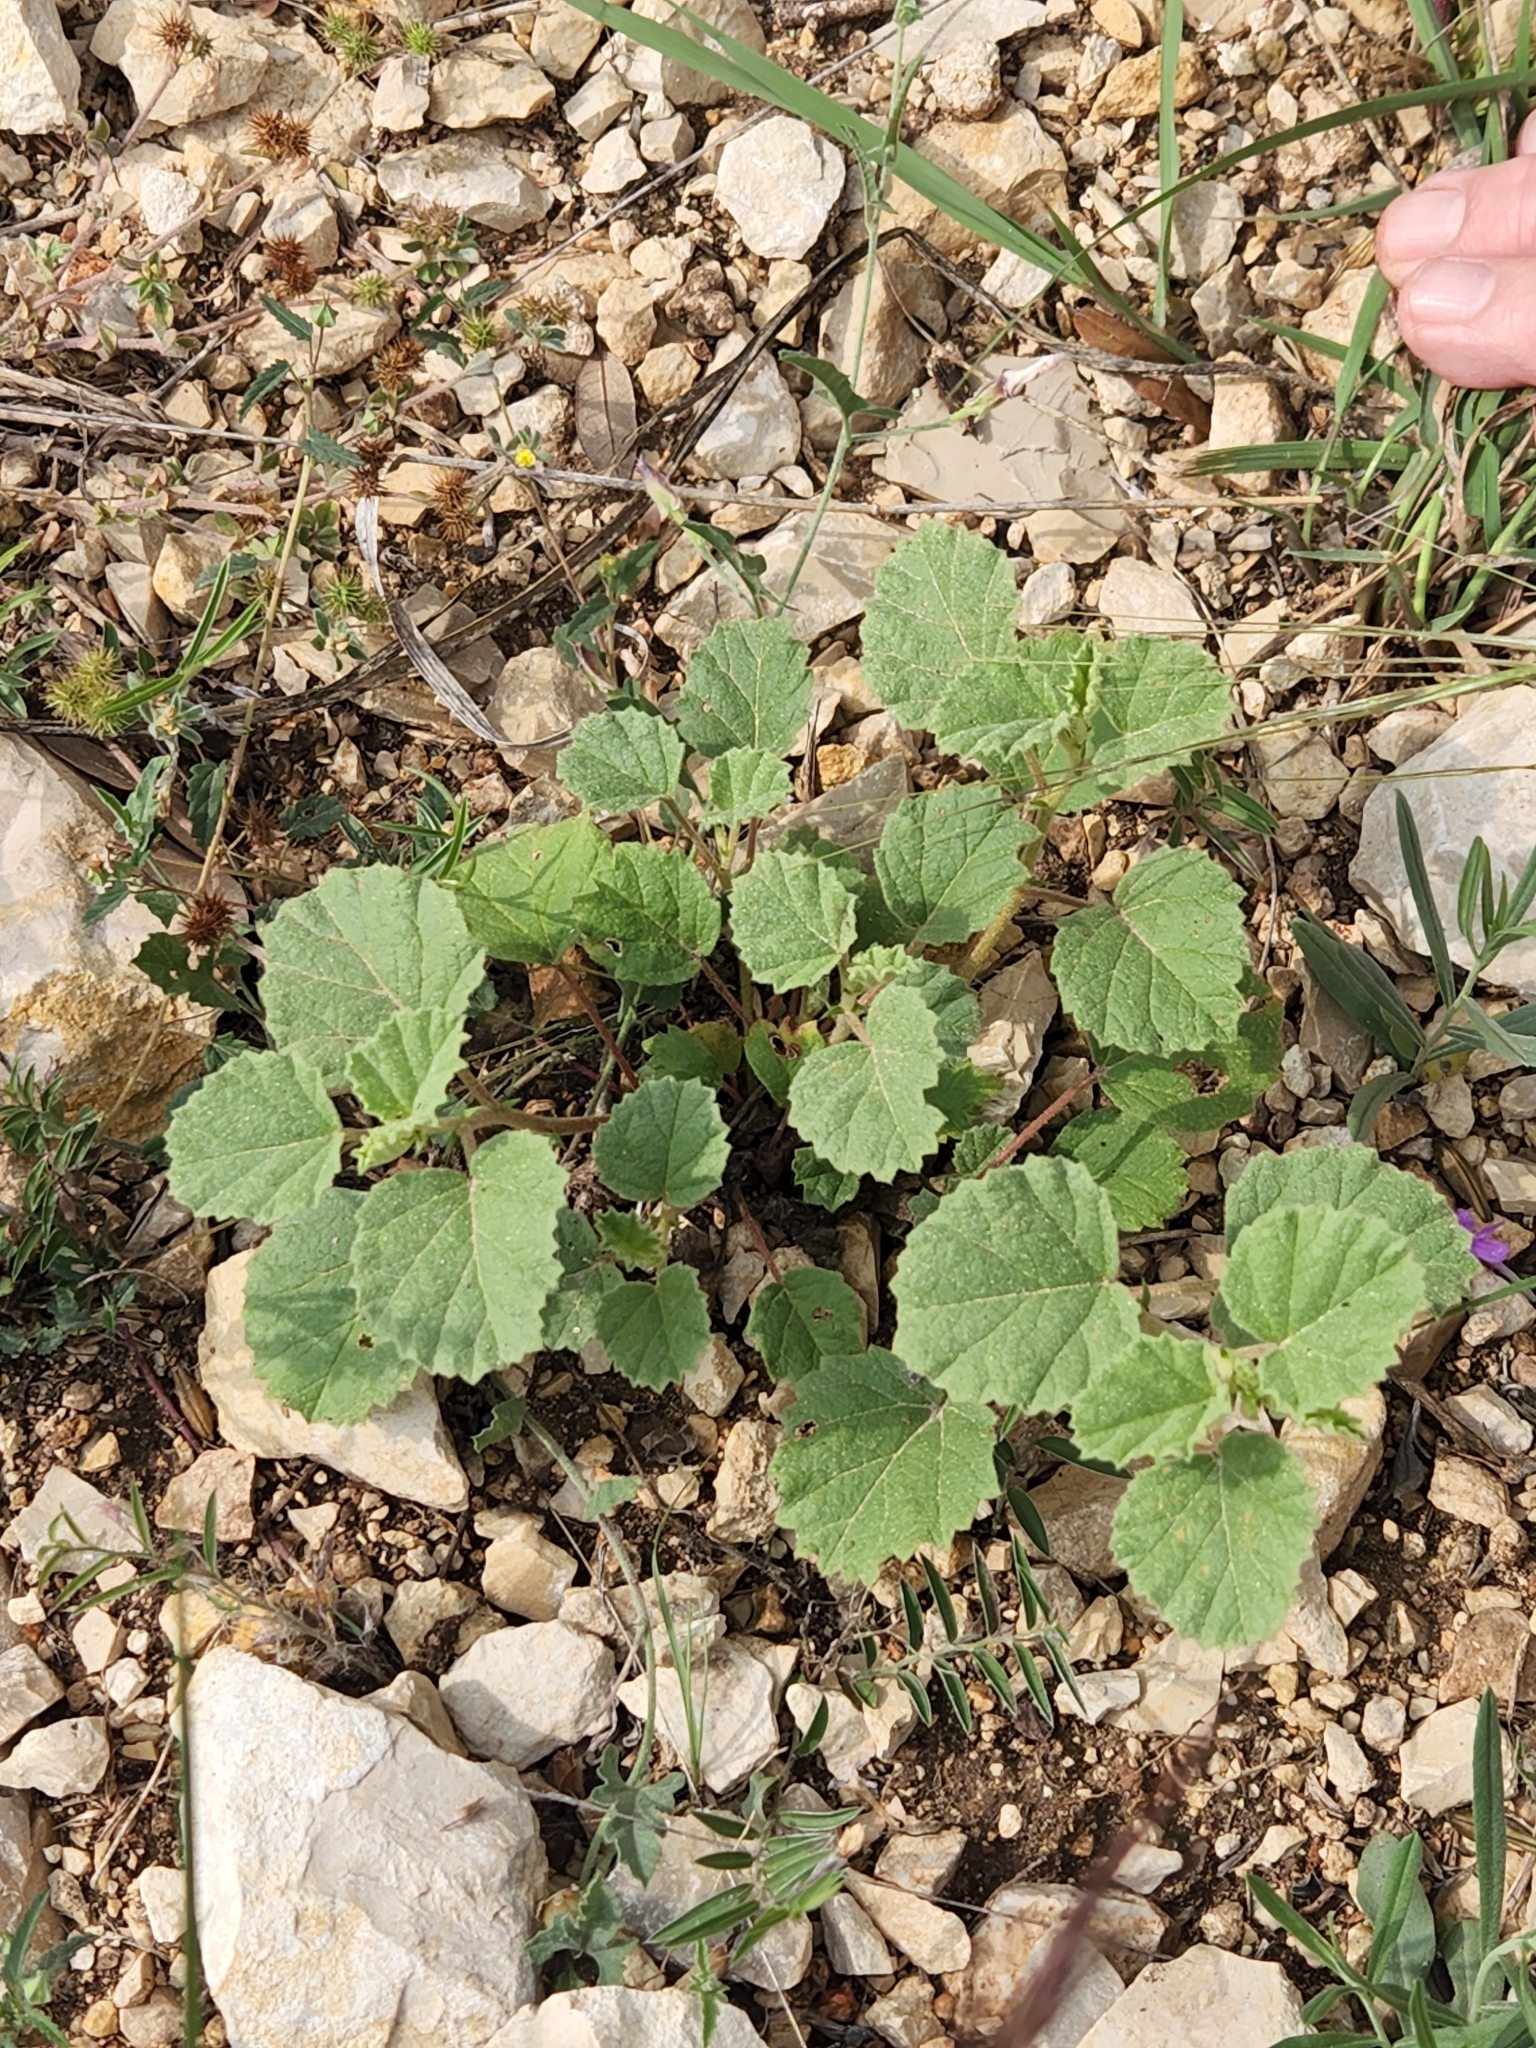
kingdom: Plantae
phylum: Tracheophyta
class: Magnoliopsida
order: Malvales
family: Malvaceae
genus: Hermannia
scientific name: Hermannia texana
